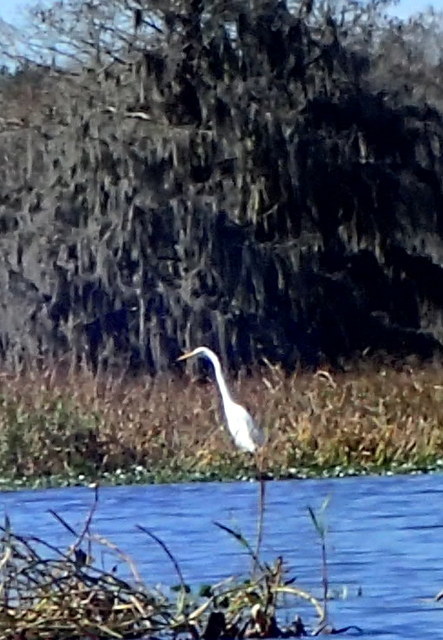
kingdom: Animalia
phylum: Chordata
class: Aves
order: Pelecaniformes
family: Ardeidae
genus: Ardea
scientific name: Ardea alba
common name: Great egret
